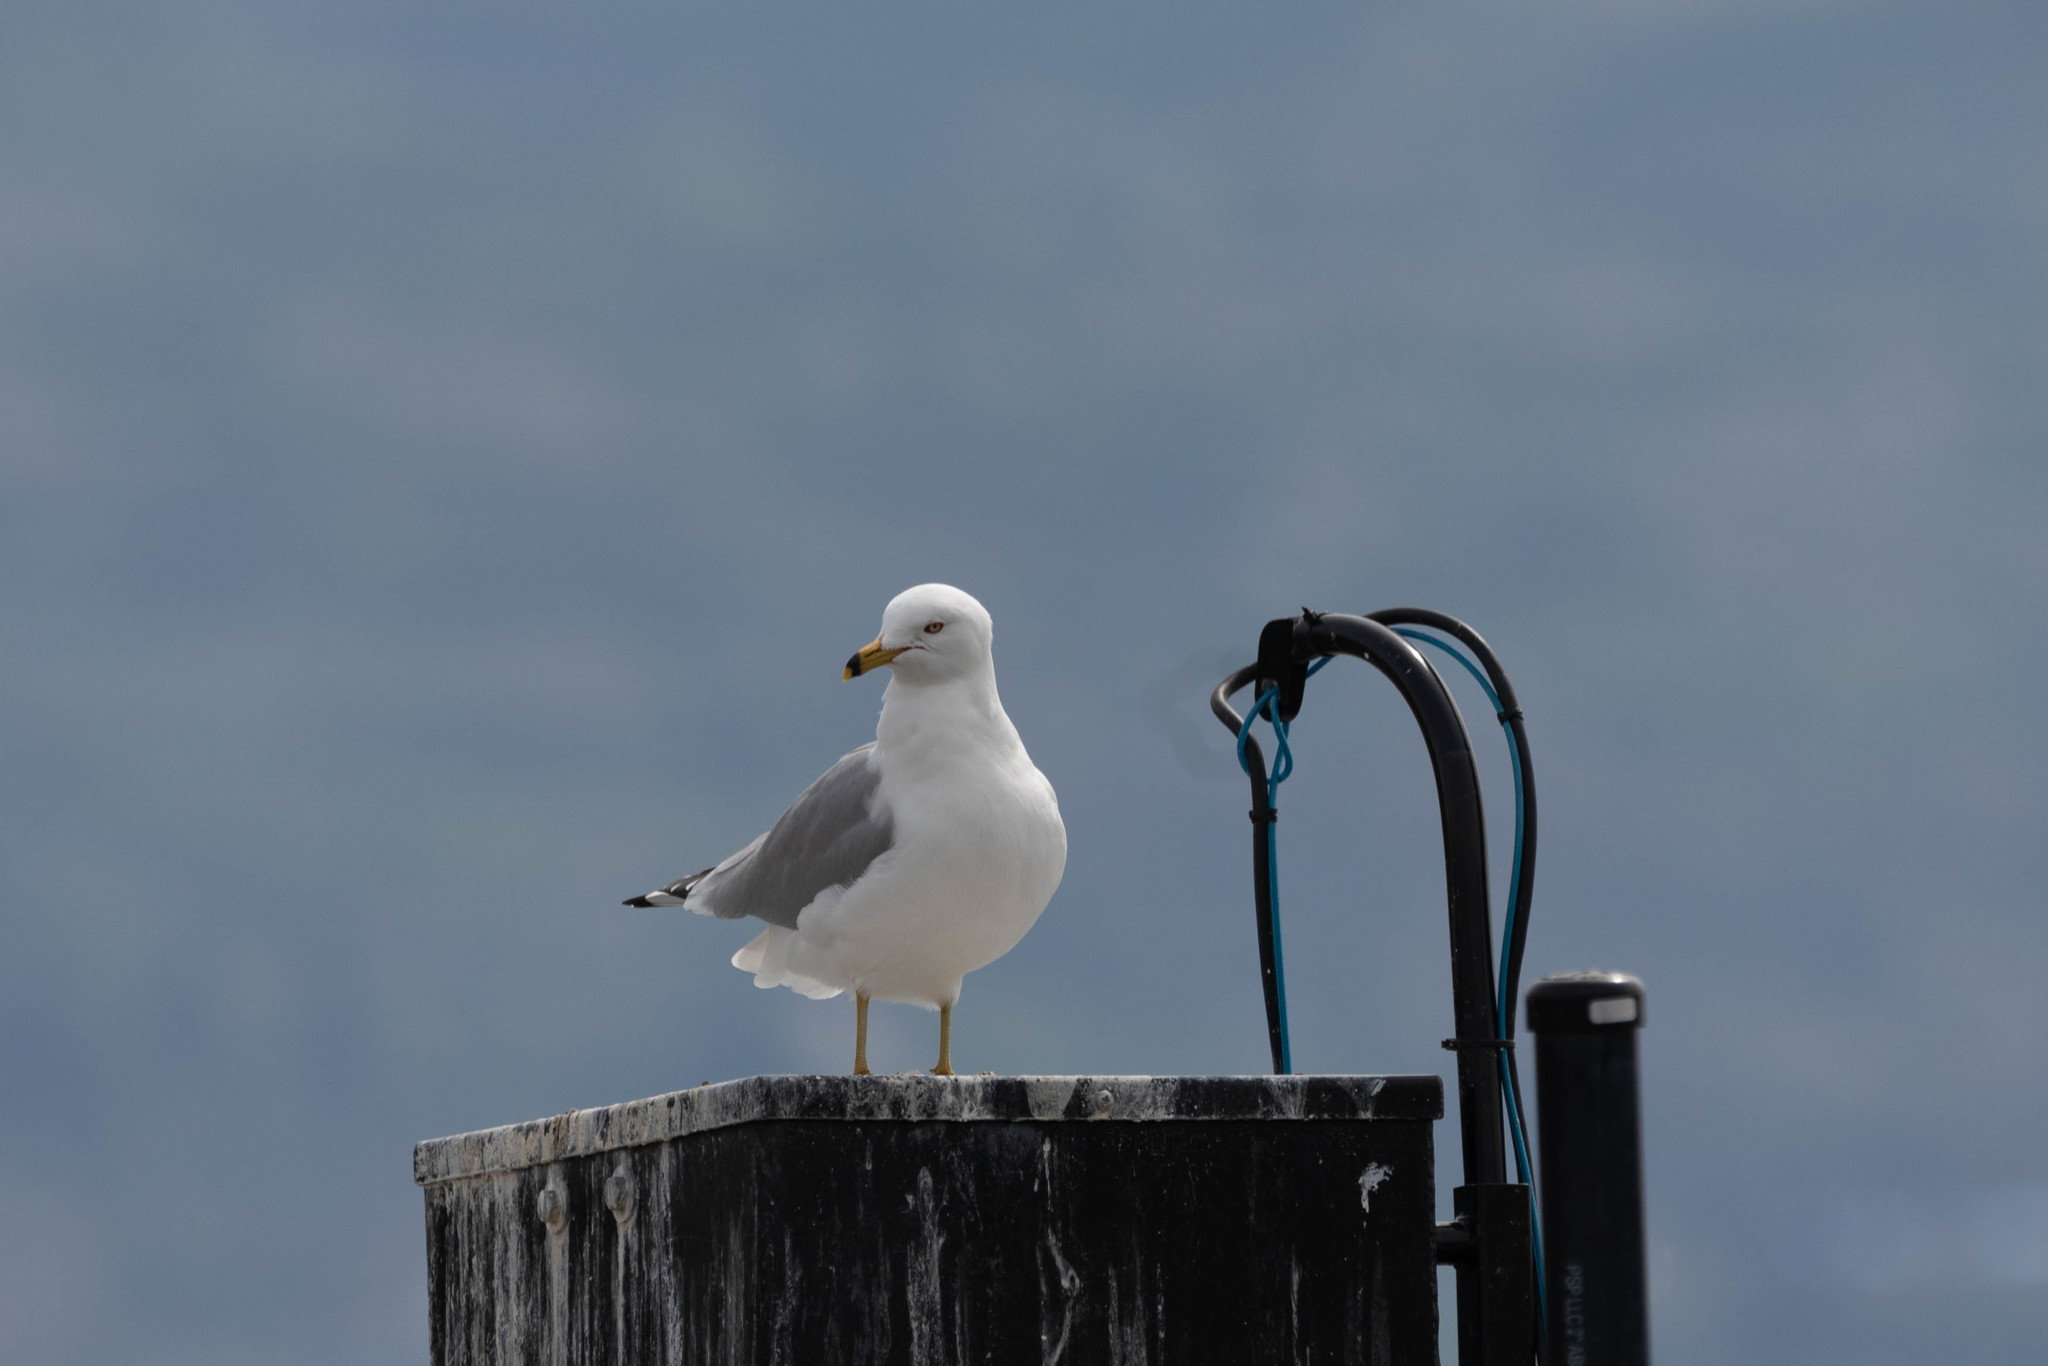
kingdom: Animalia
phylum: Chordata
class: Aves
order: Charadriiformes
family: Laridae
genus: Larus
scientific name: Larus delawarensis
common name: Ring-billed gull
